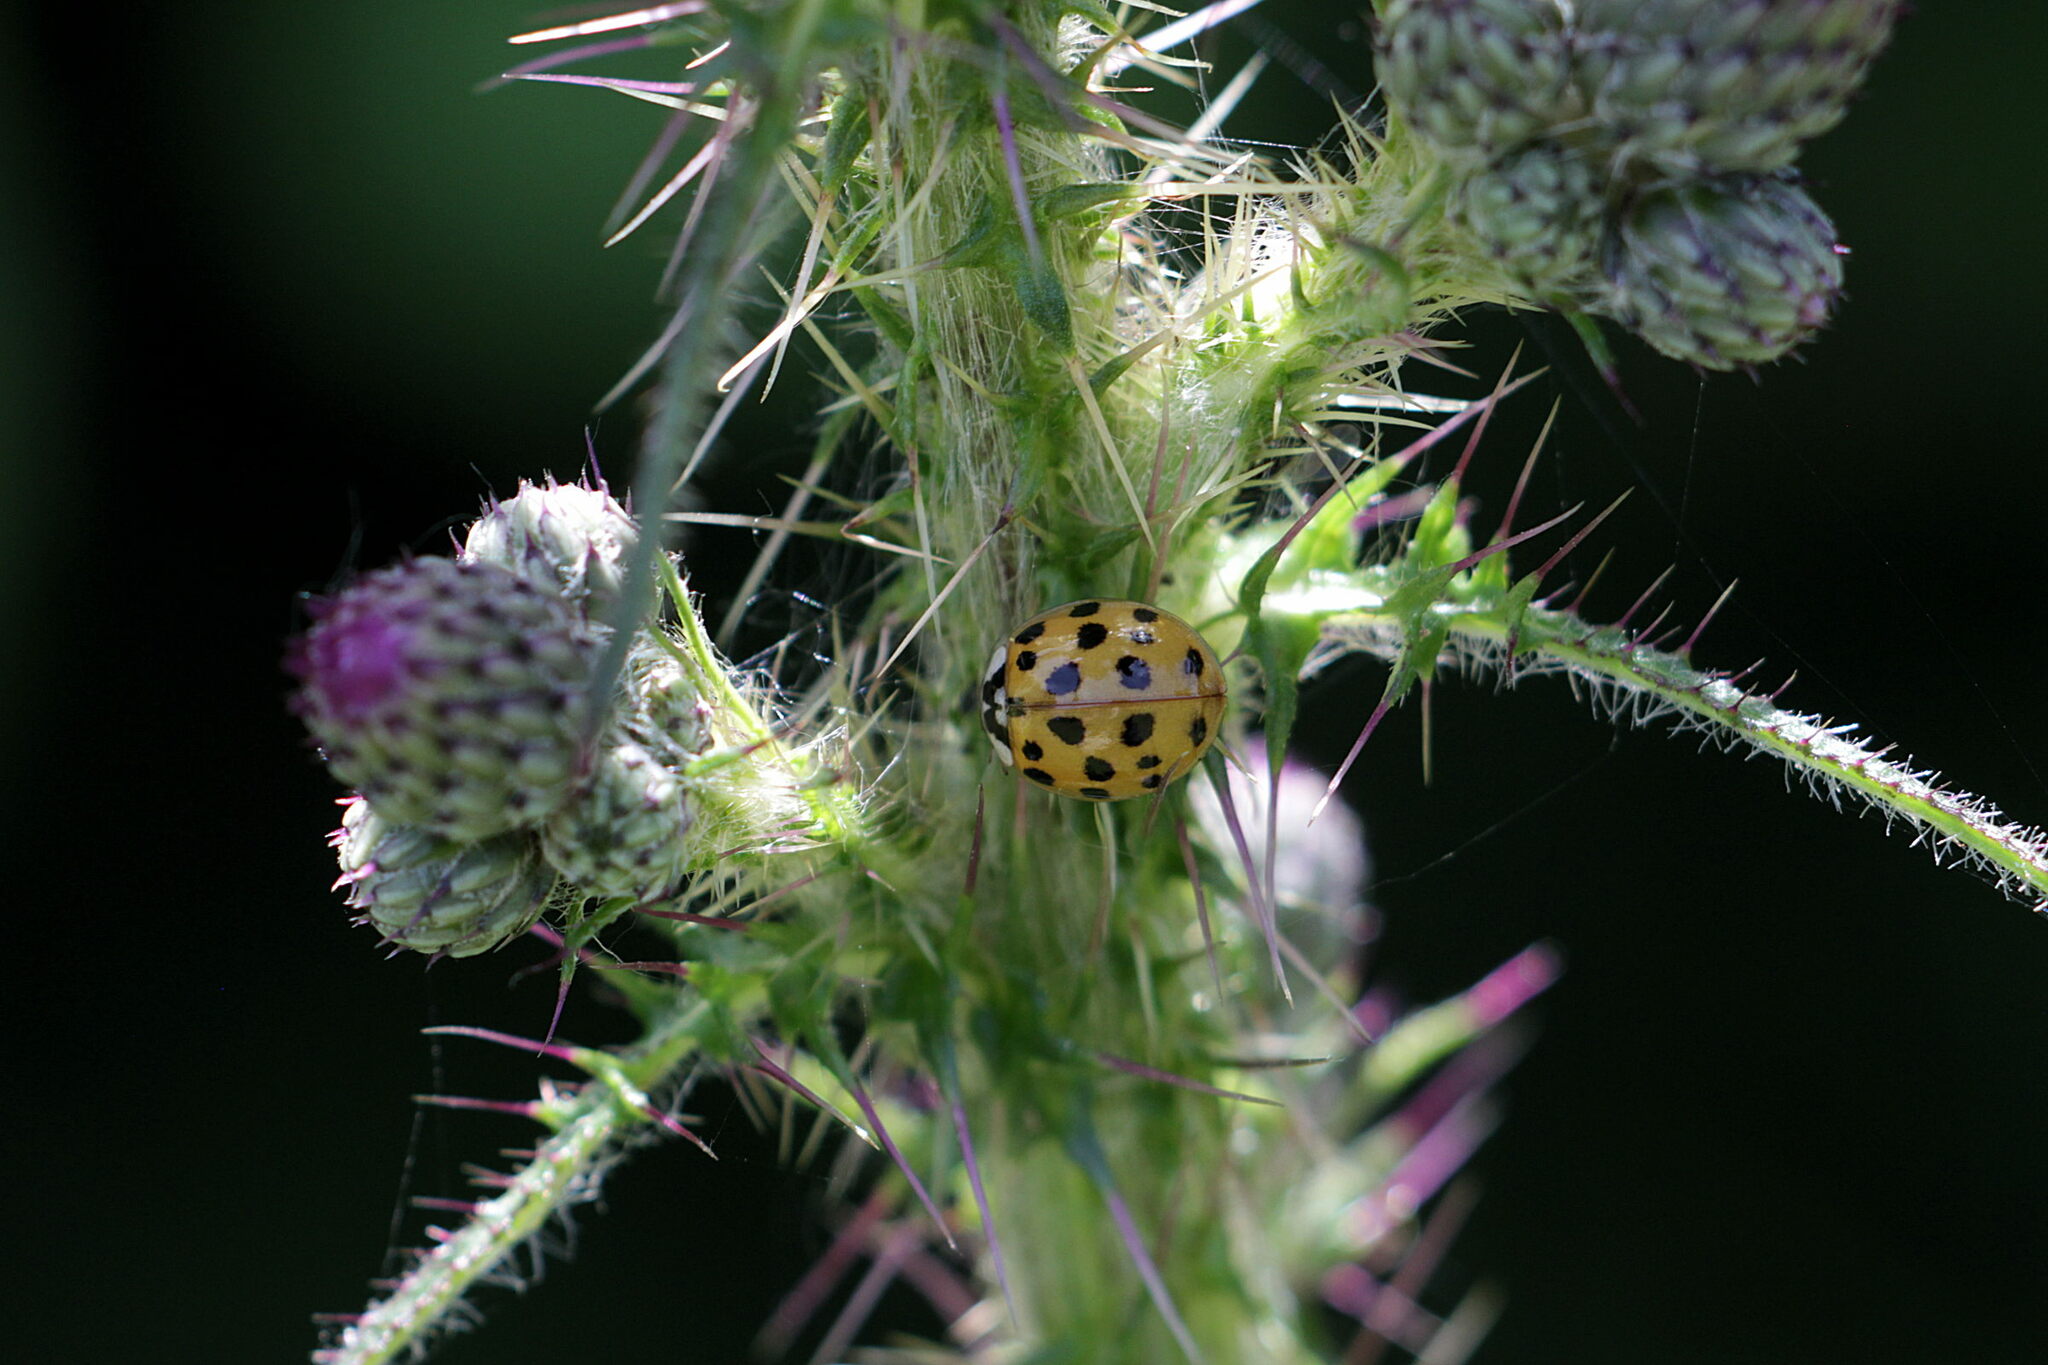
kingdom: Animalia
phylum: Arthropoda
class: Insecta
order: Coleoptera
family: Coccinellidae
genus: Harmonia
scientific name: Harmonia axyridis
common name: Harlequin ladybird
